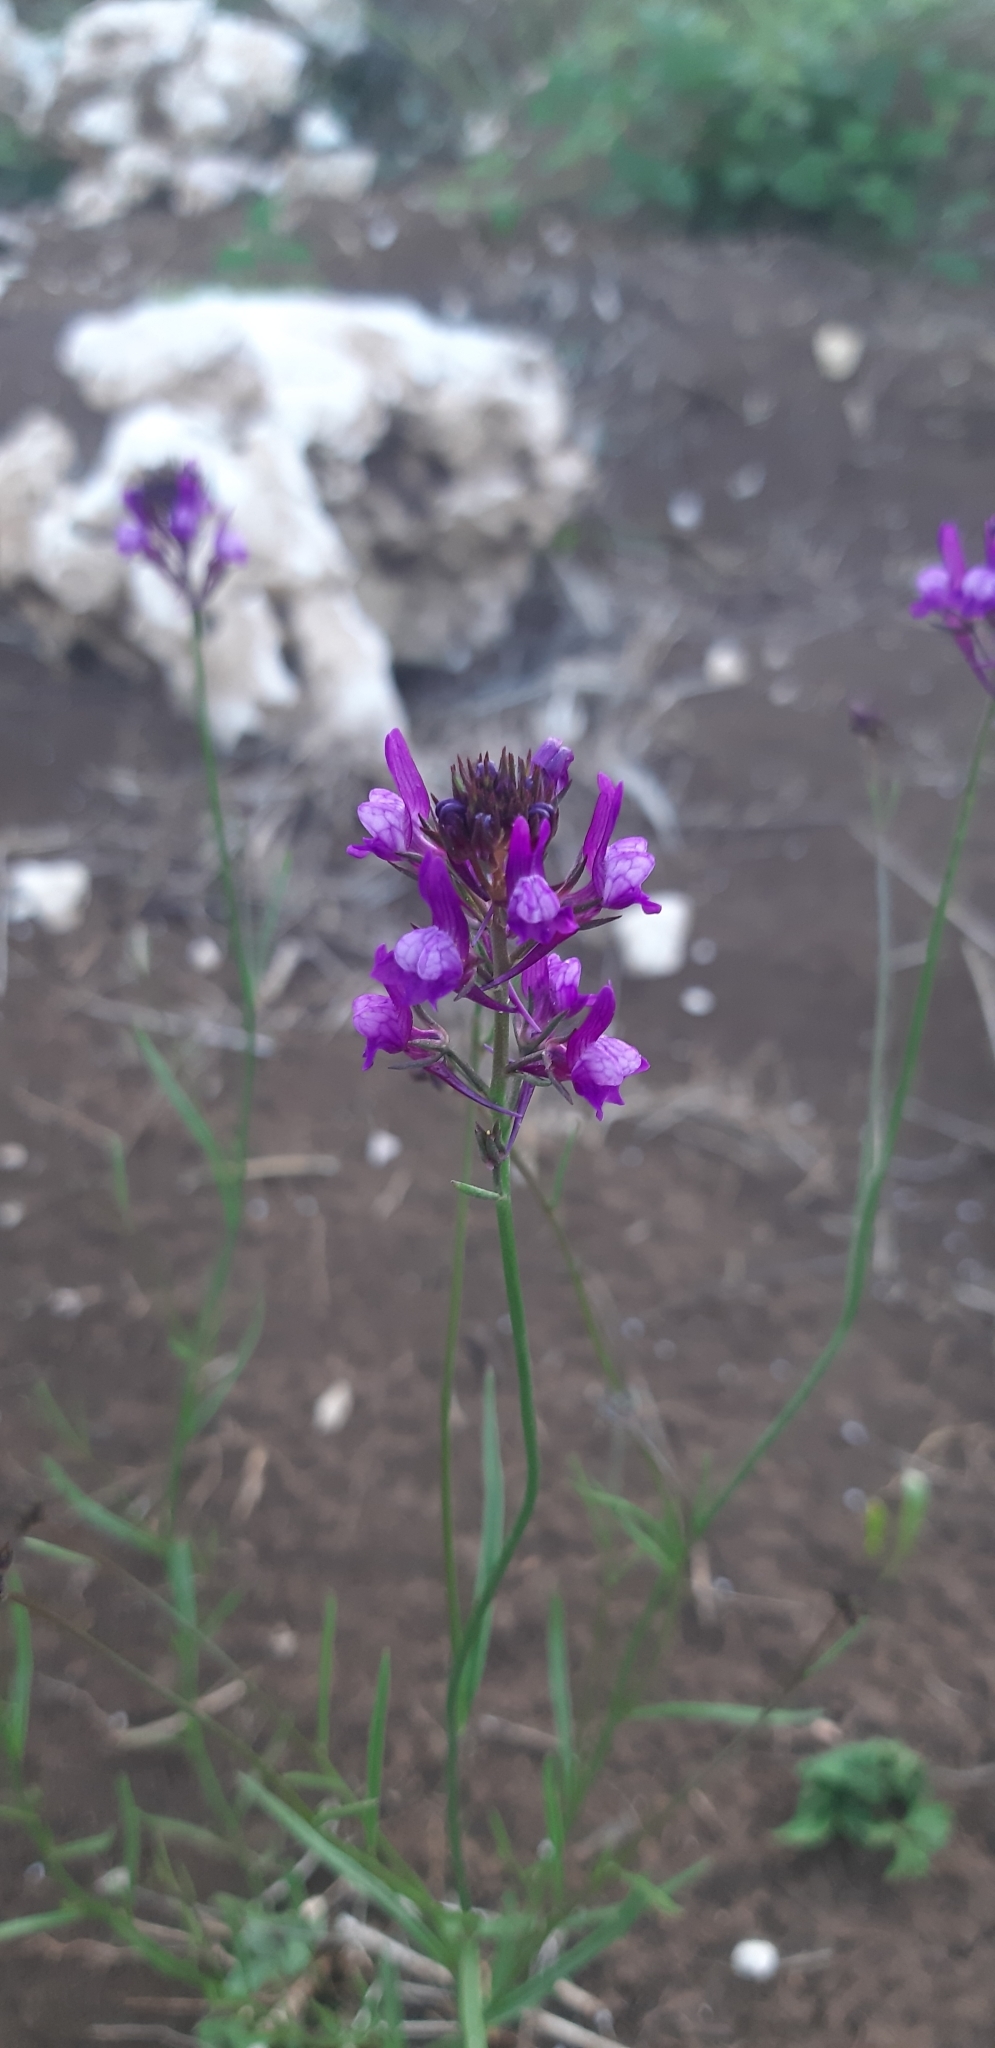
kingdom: Plantae
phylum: Tracheophyta
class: Magnoliopsida
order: Lamiales
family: Plantaginaceae
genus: Linaria
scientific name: Linaria pelisseriana
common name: Jersey toadflax
